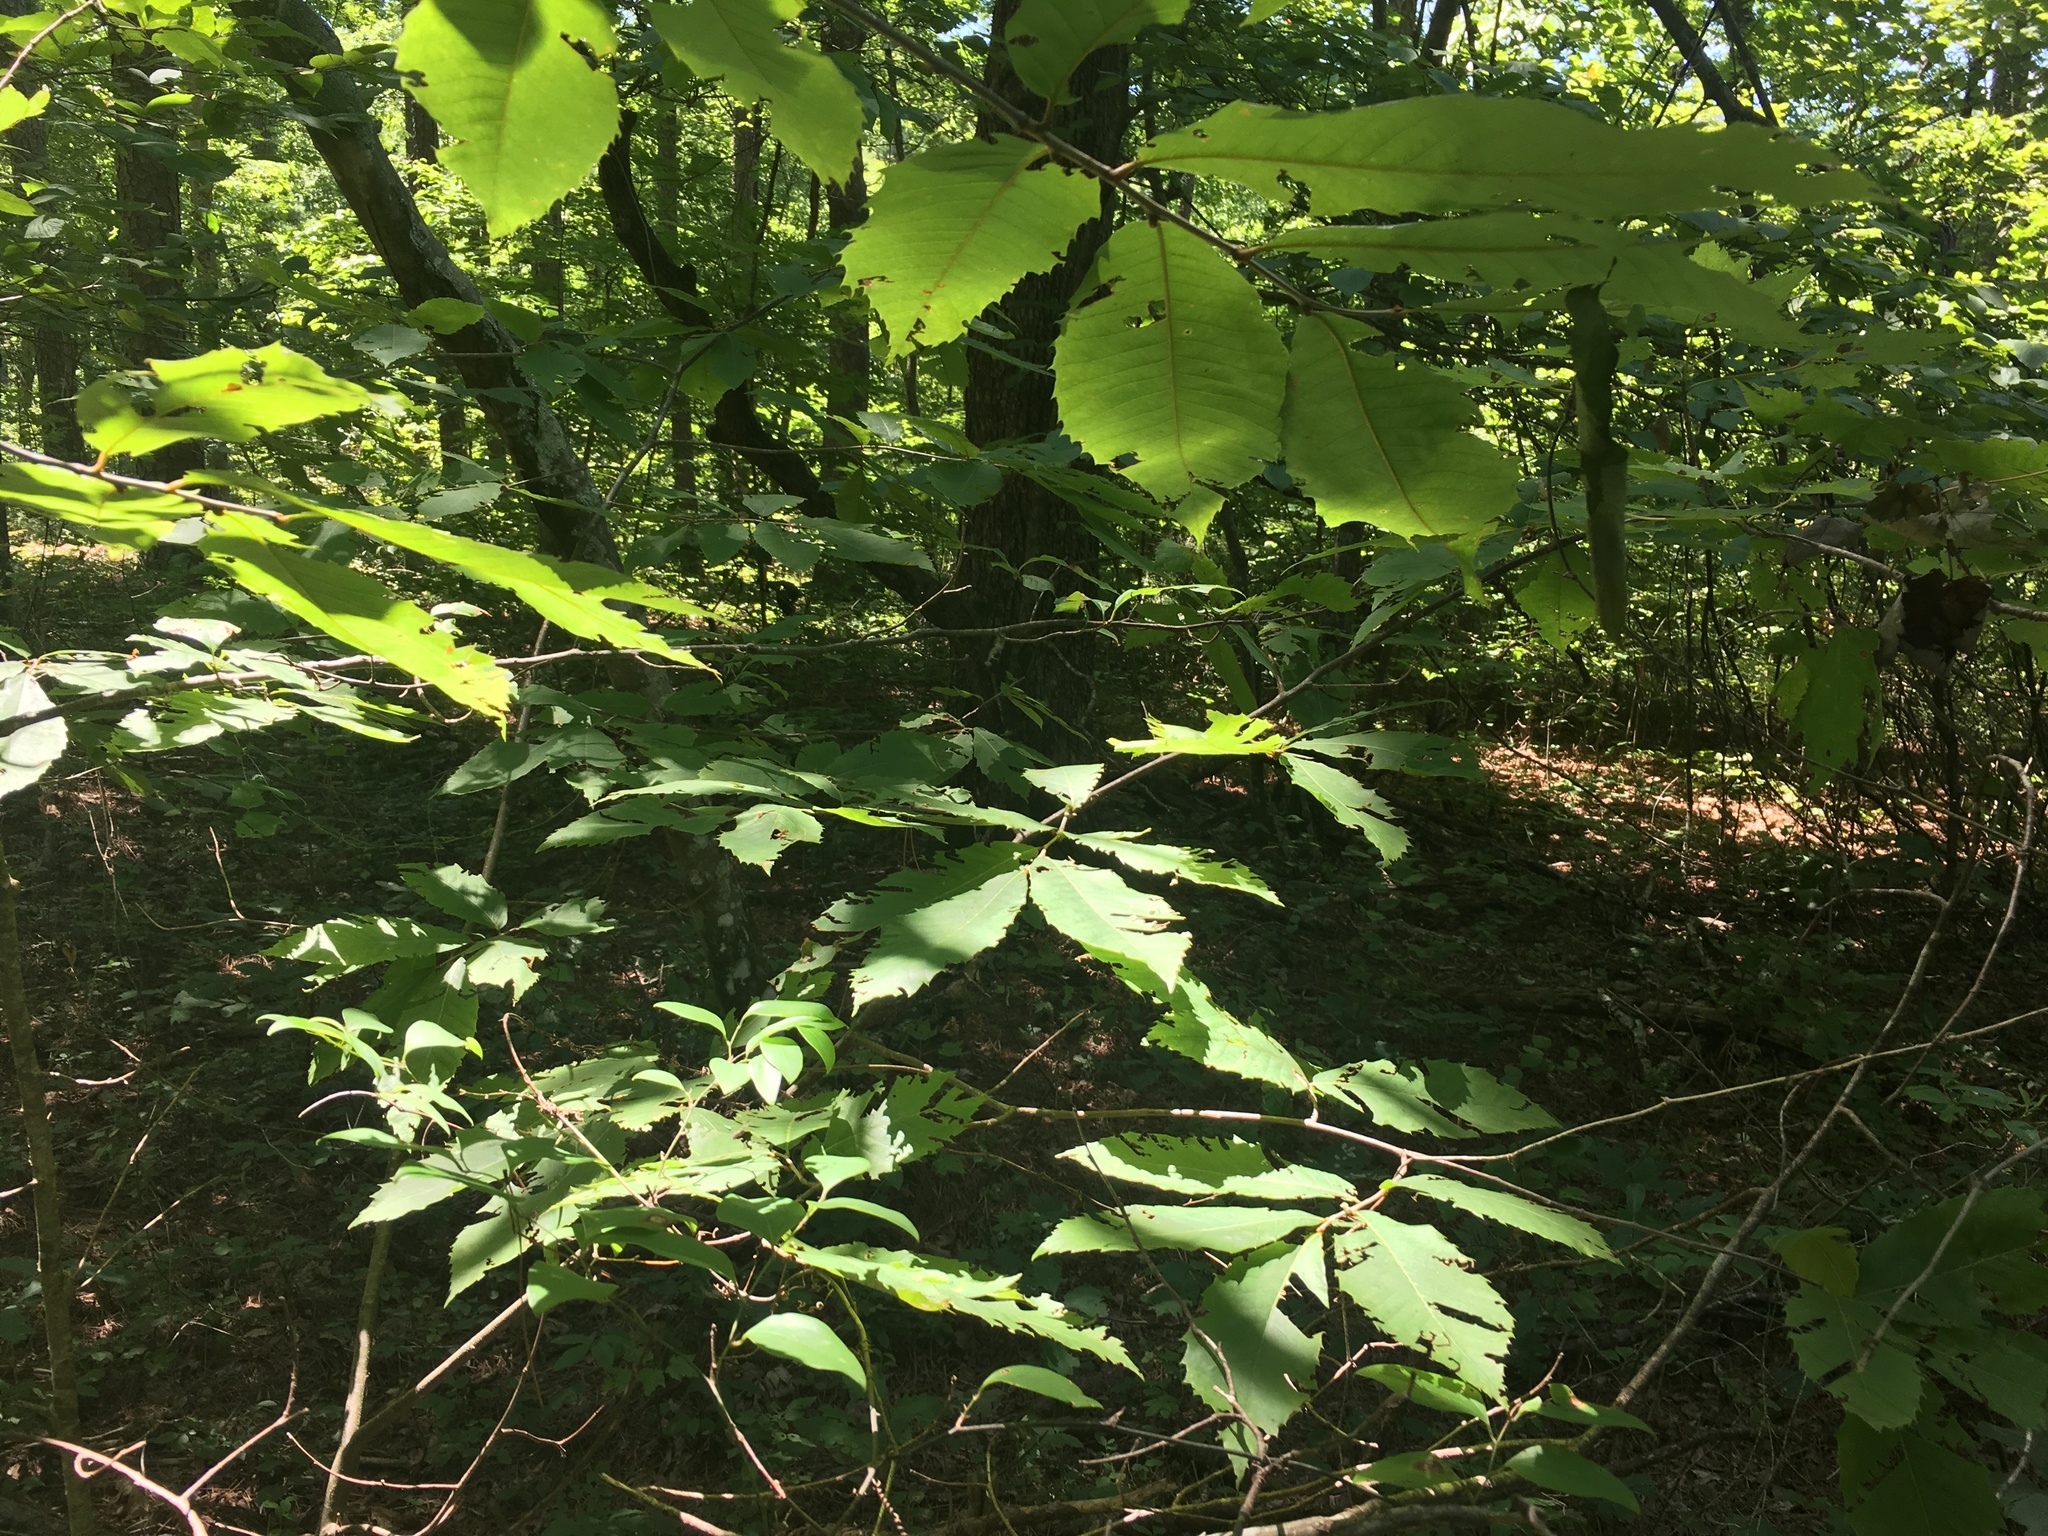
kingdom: Plantae
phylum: Tracheophyta
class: Magnoliopsida
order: Fagales
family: Fagaceae
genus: Castanea
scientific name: Castanea ozarkensis
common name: Ozark chinkapin
